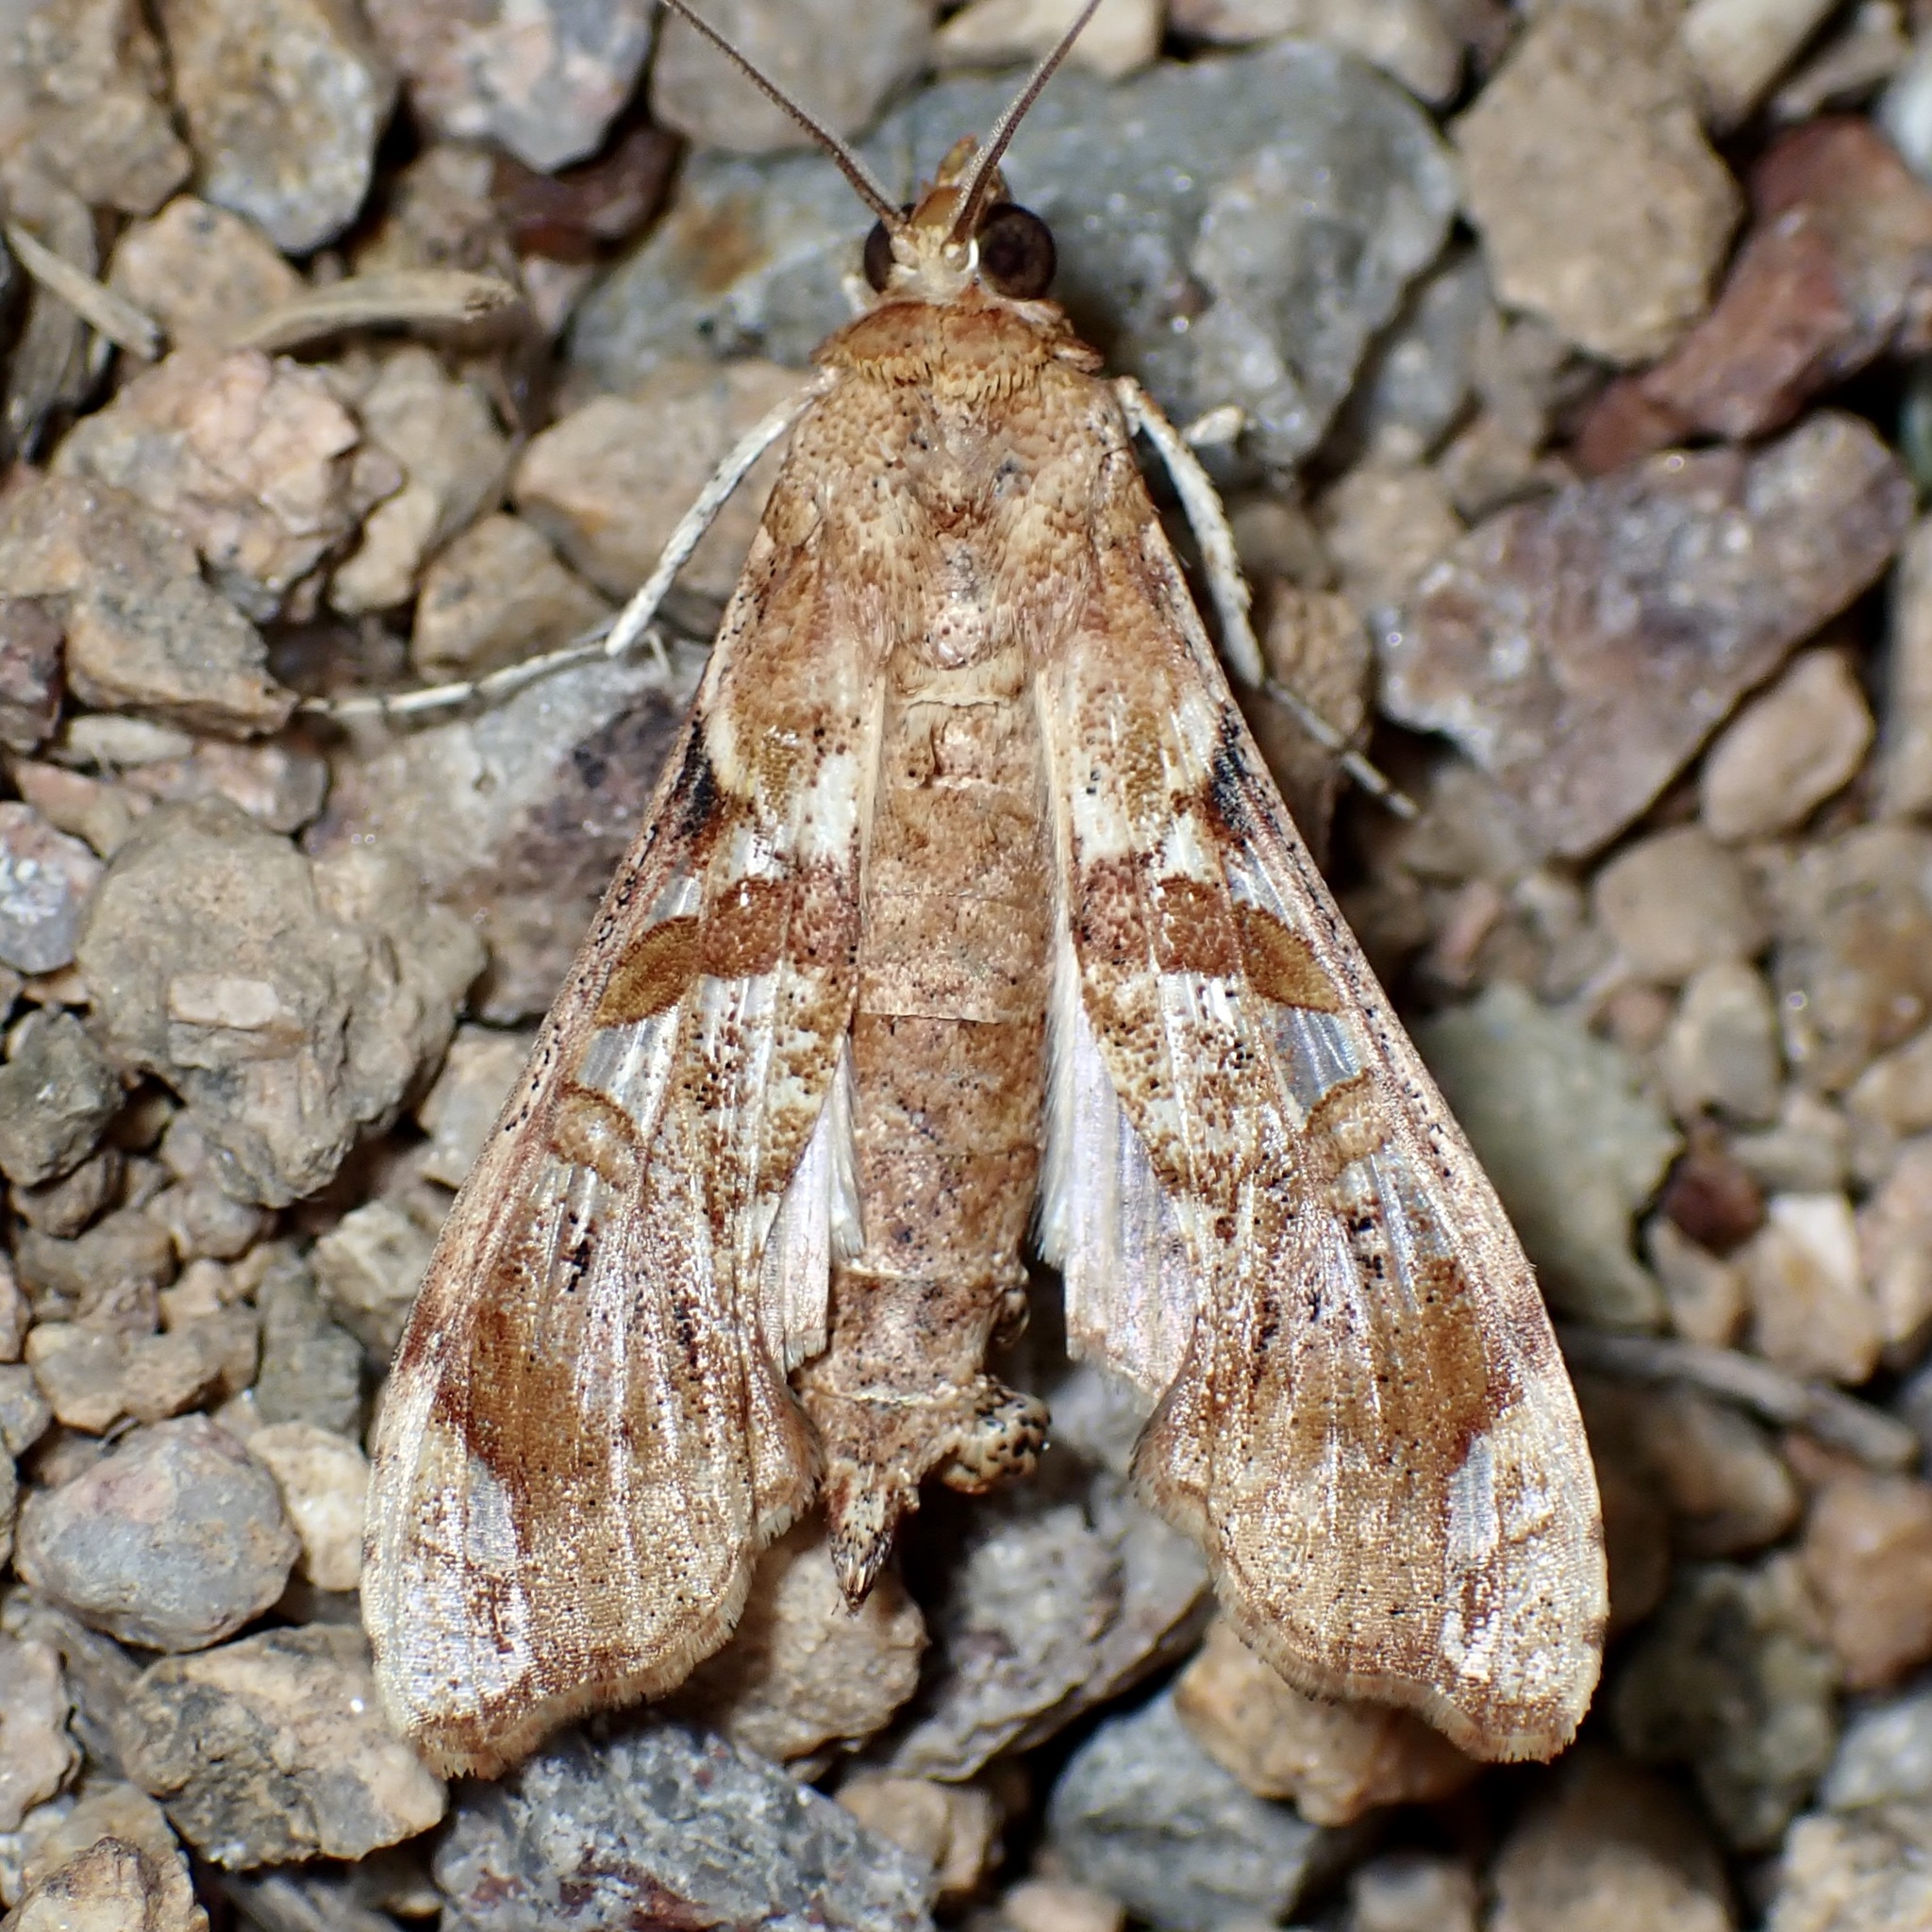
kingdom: Animalia
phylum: Arthropoda
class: Insecta
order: Lepidoptera
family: Crambidae
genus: Terastia
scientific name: Terastia meticulosalis
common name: Moth
